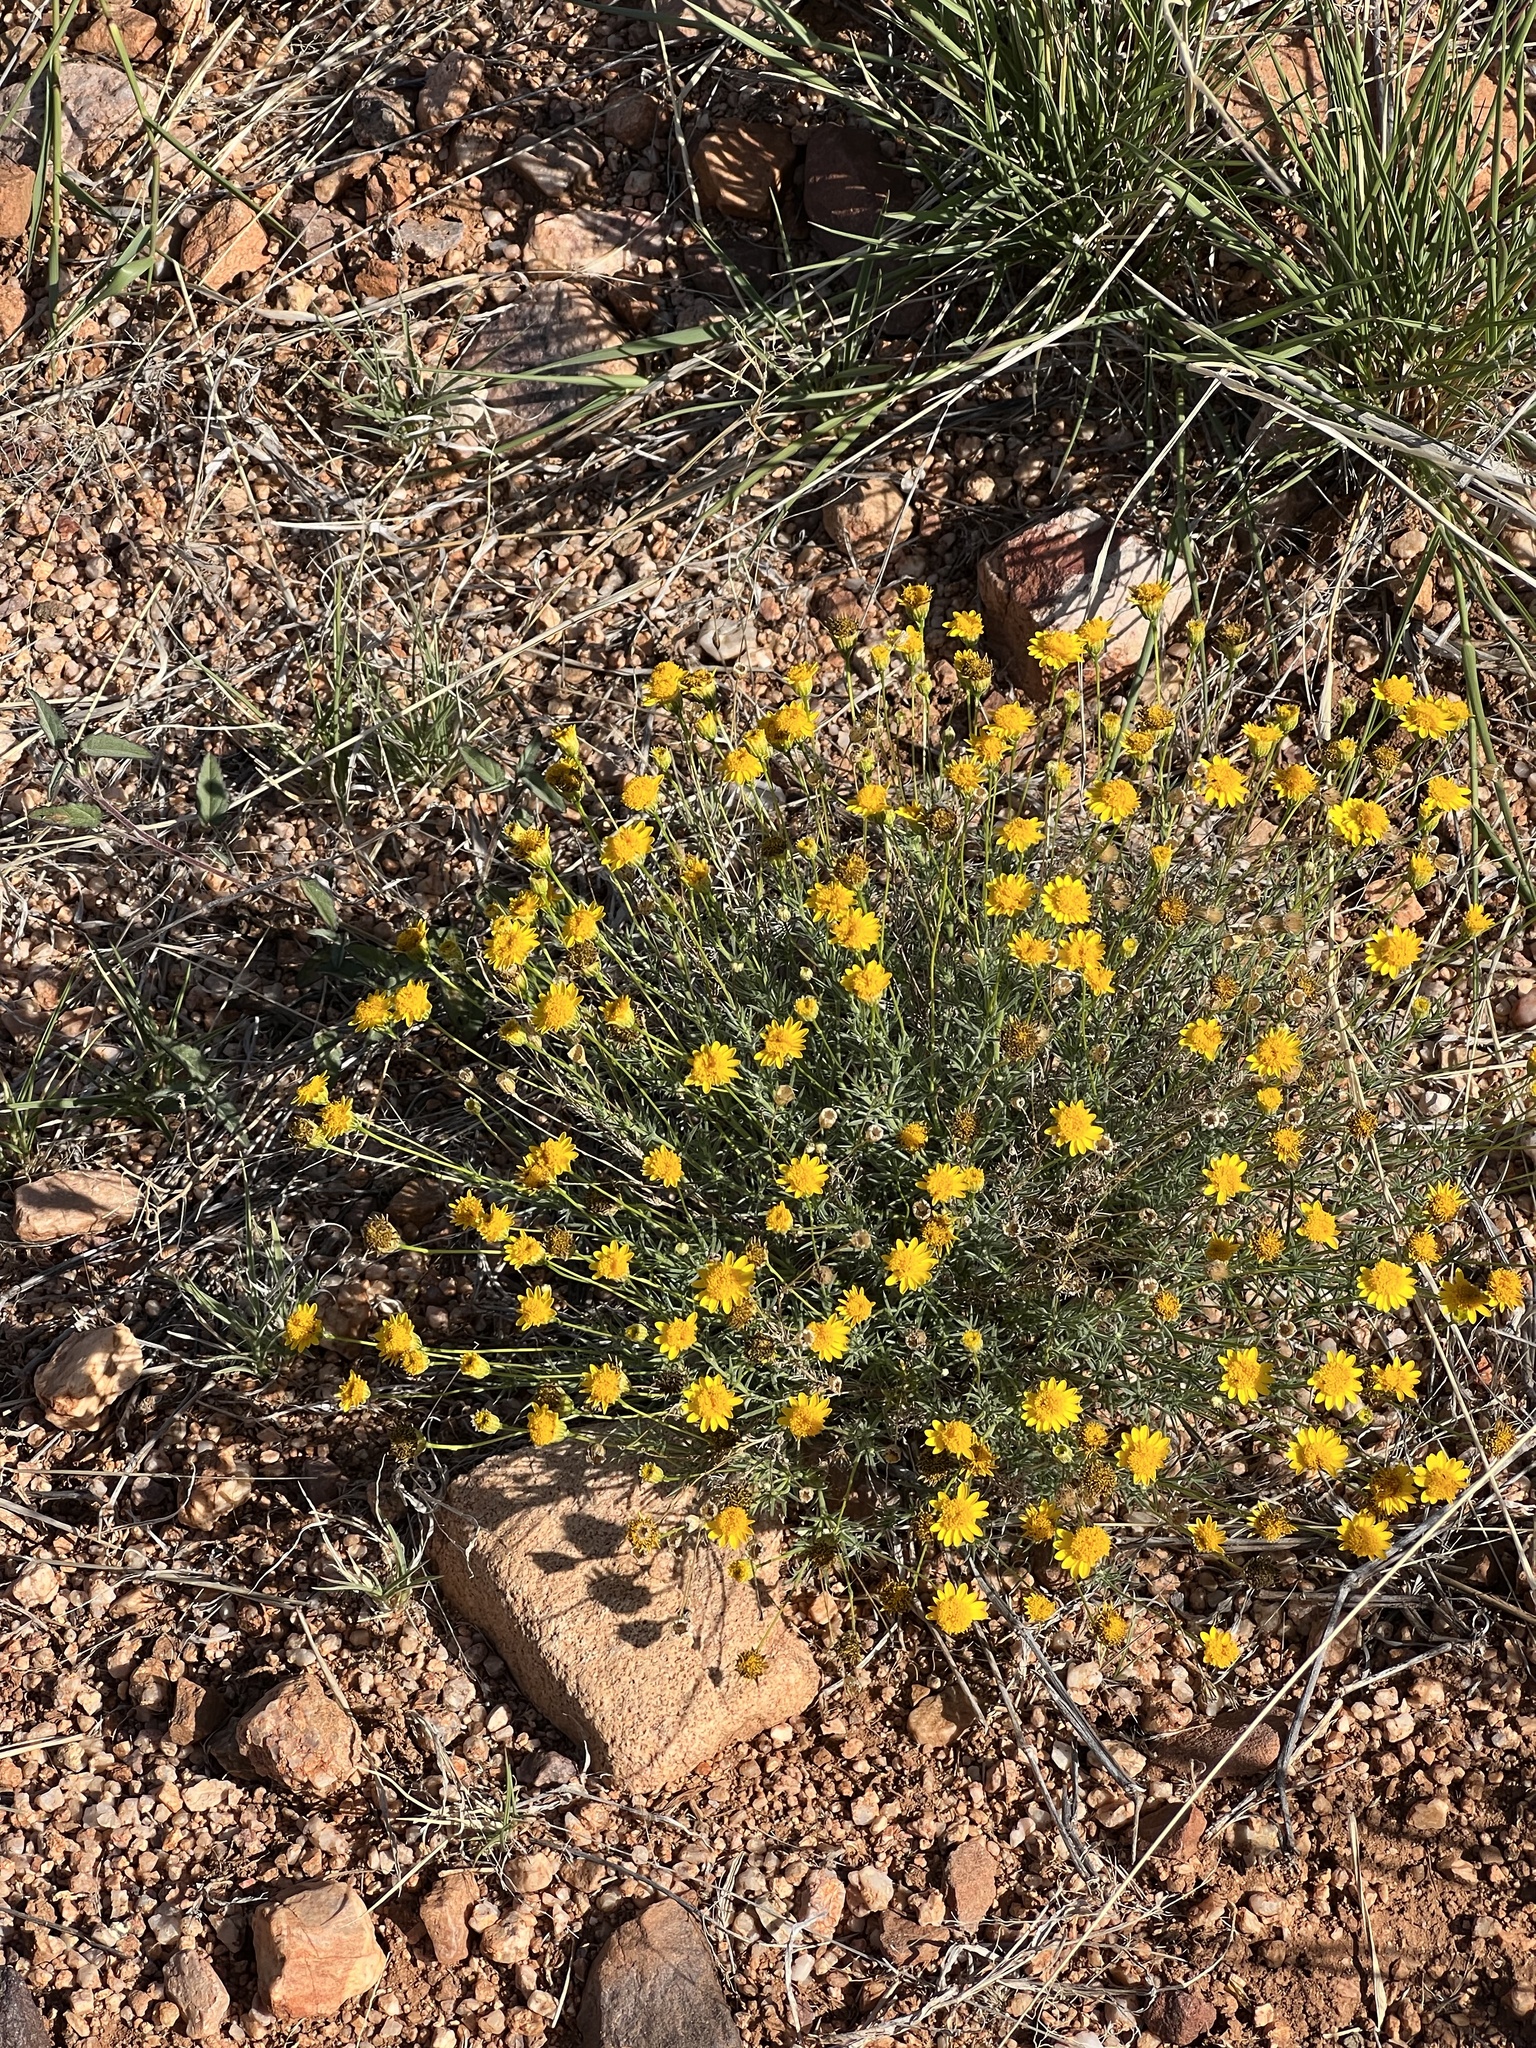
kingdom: Plantae
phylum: Tracheophyta
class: Magnoliopsida
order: Asterales
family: Asteraceae
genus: Thymophylla
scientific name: Thymophylla pentachaeta
